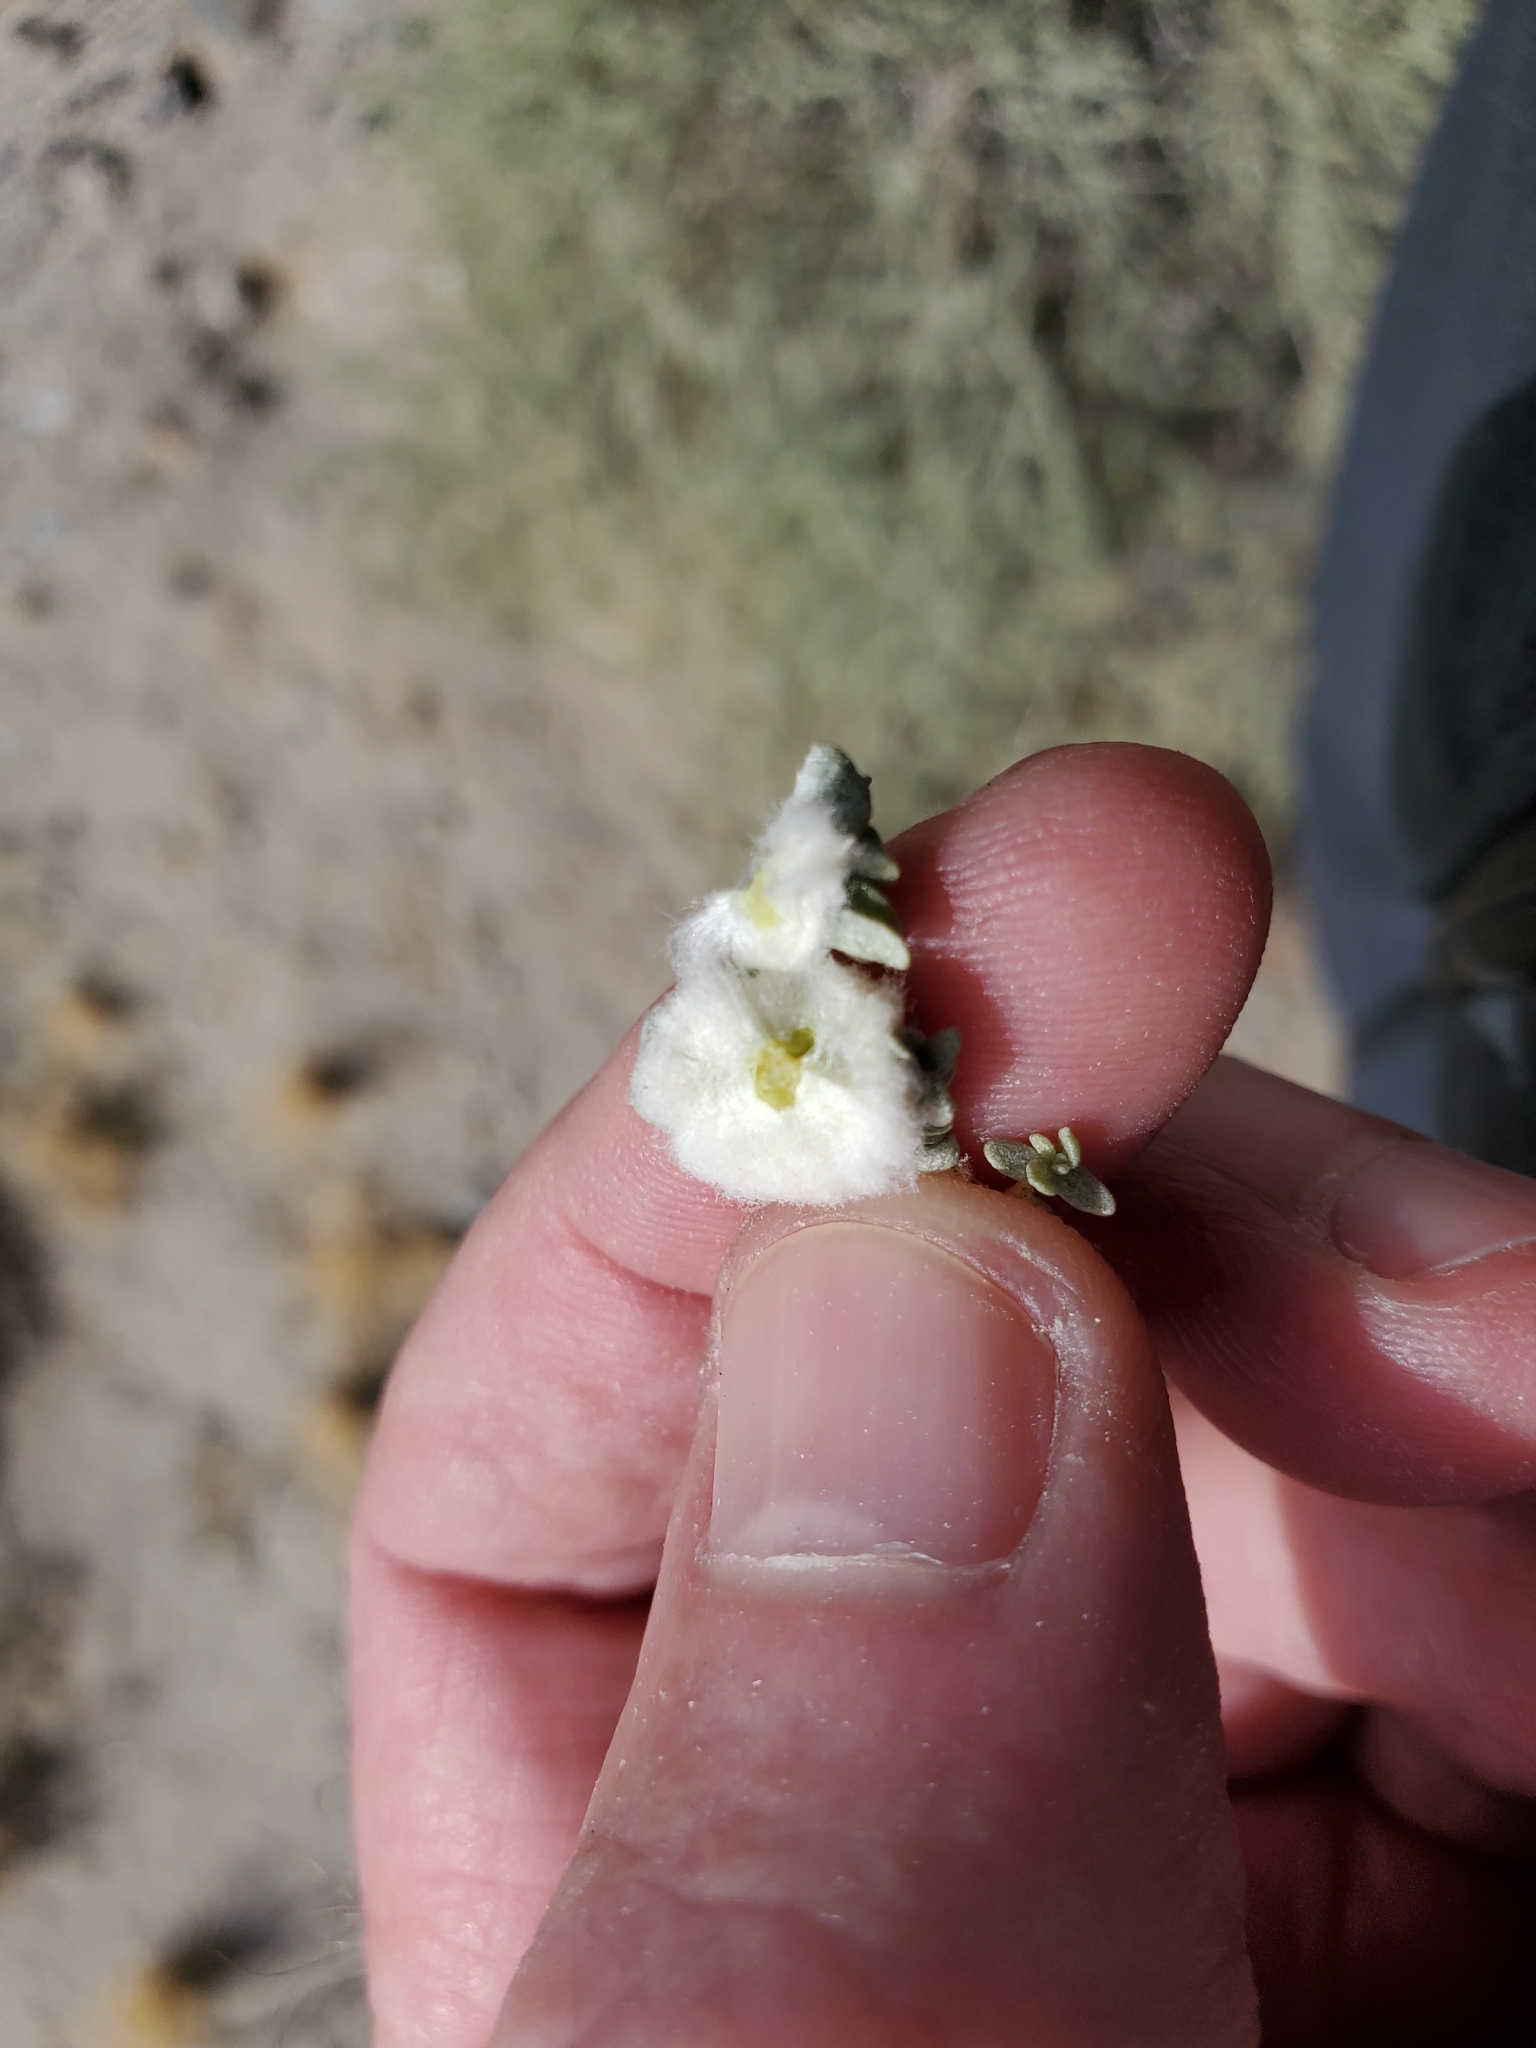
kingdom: Plantae
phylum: Tracheophyta
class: Magnoliopsida
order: Caryophyllales
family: Amaranthaceae
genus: Atriplex
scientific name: Atriplex polycarpa
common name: Desert saltbush
